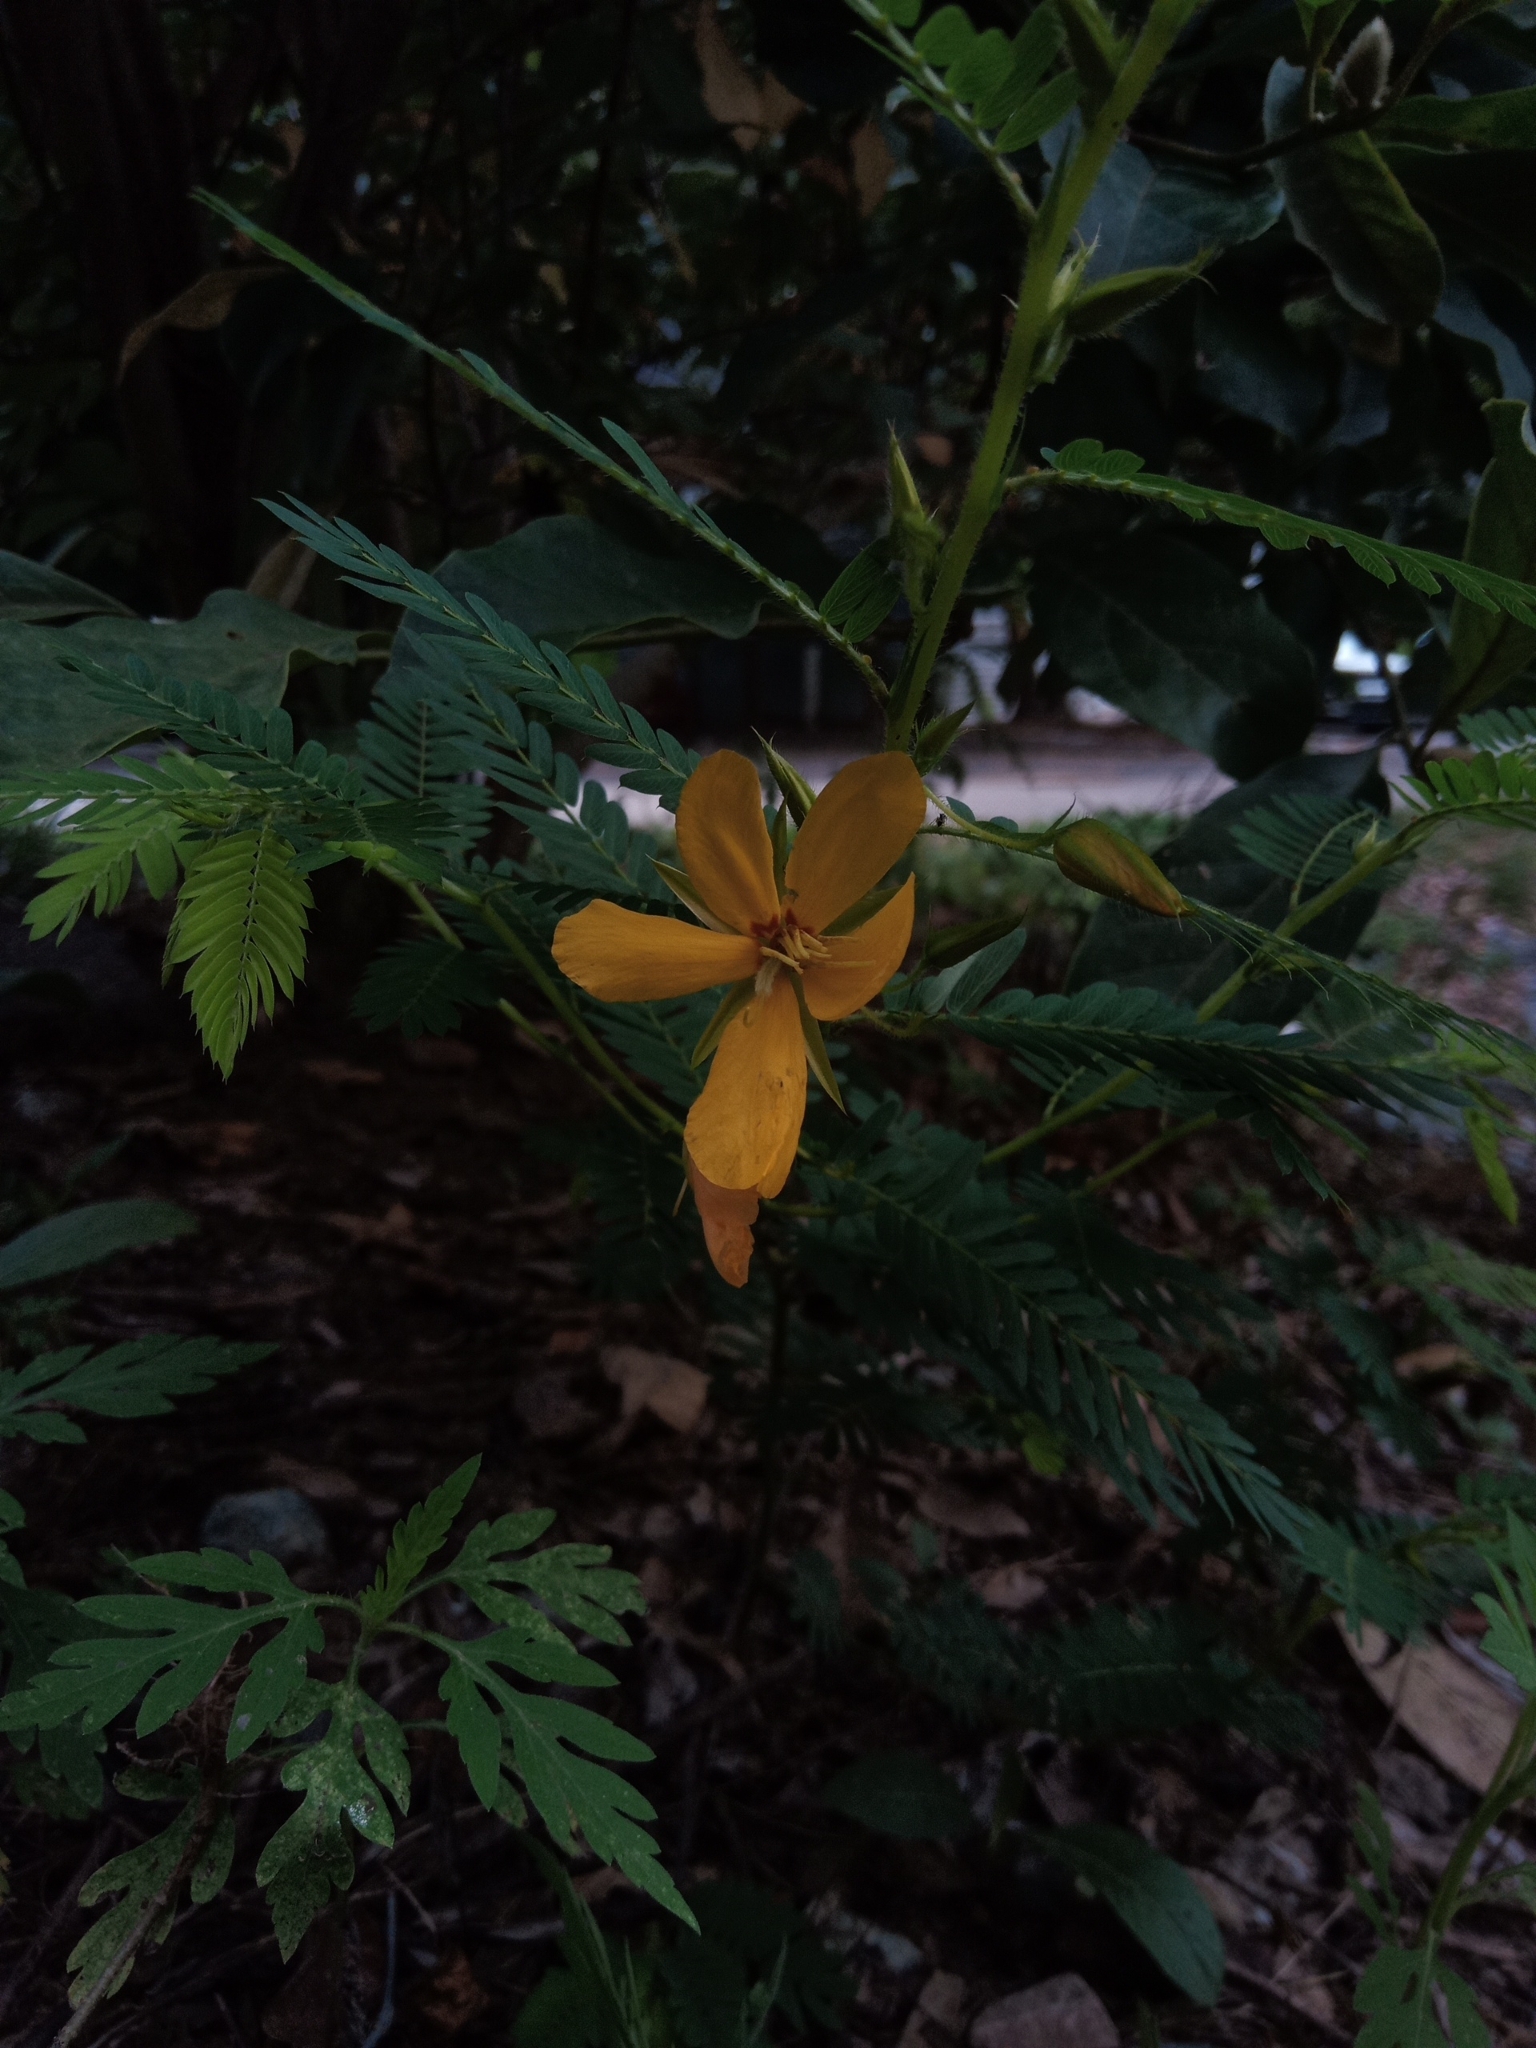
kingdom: Plantae
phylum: Tracheophyta
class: Magnoliopsida
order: Fabales
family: Fabaceae
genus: Chamaecrista
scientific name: Chamaecrista fasciculata
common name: Golden cassia
